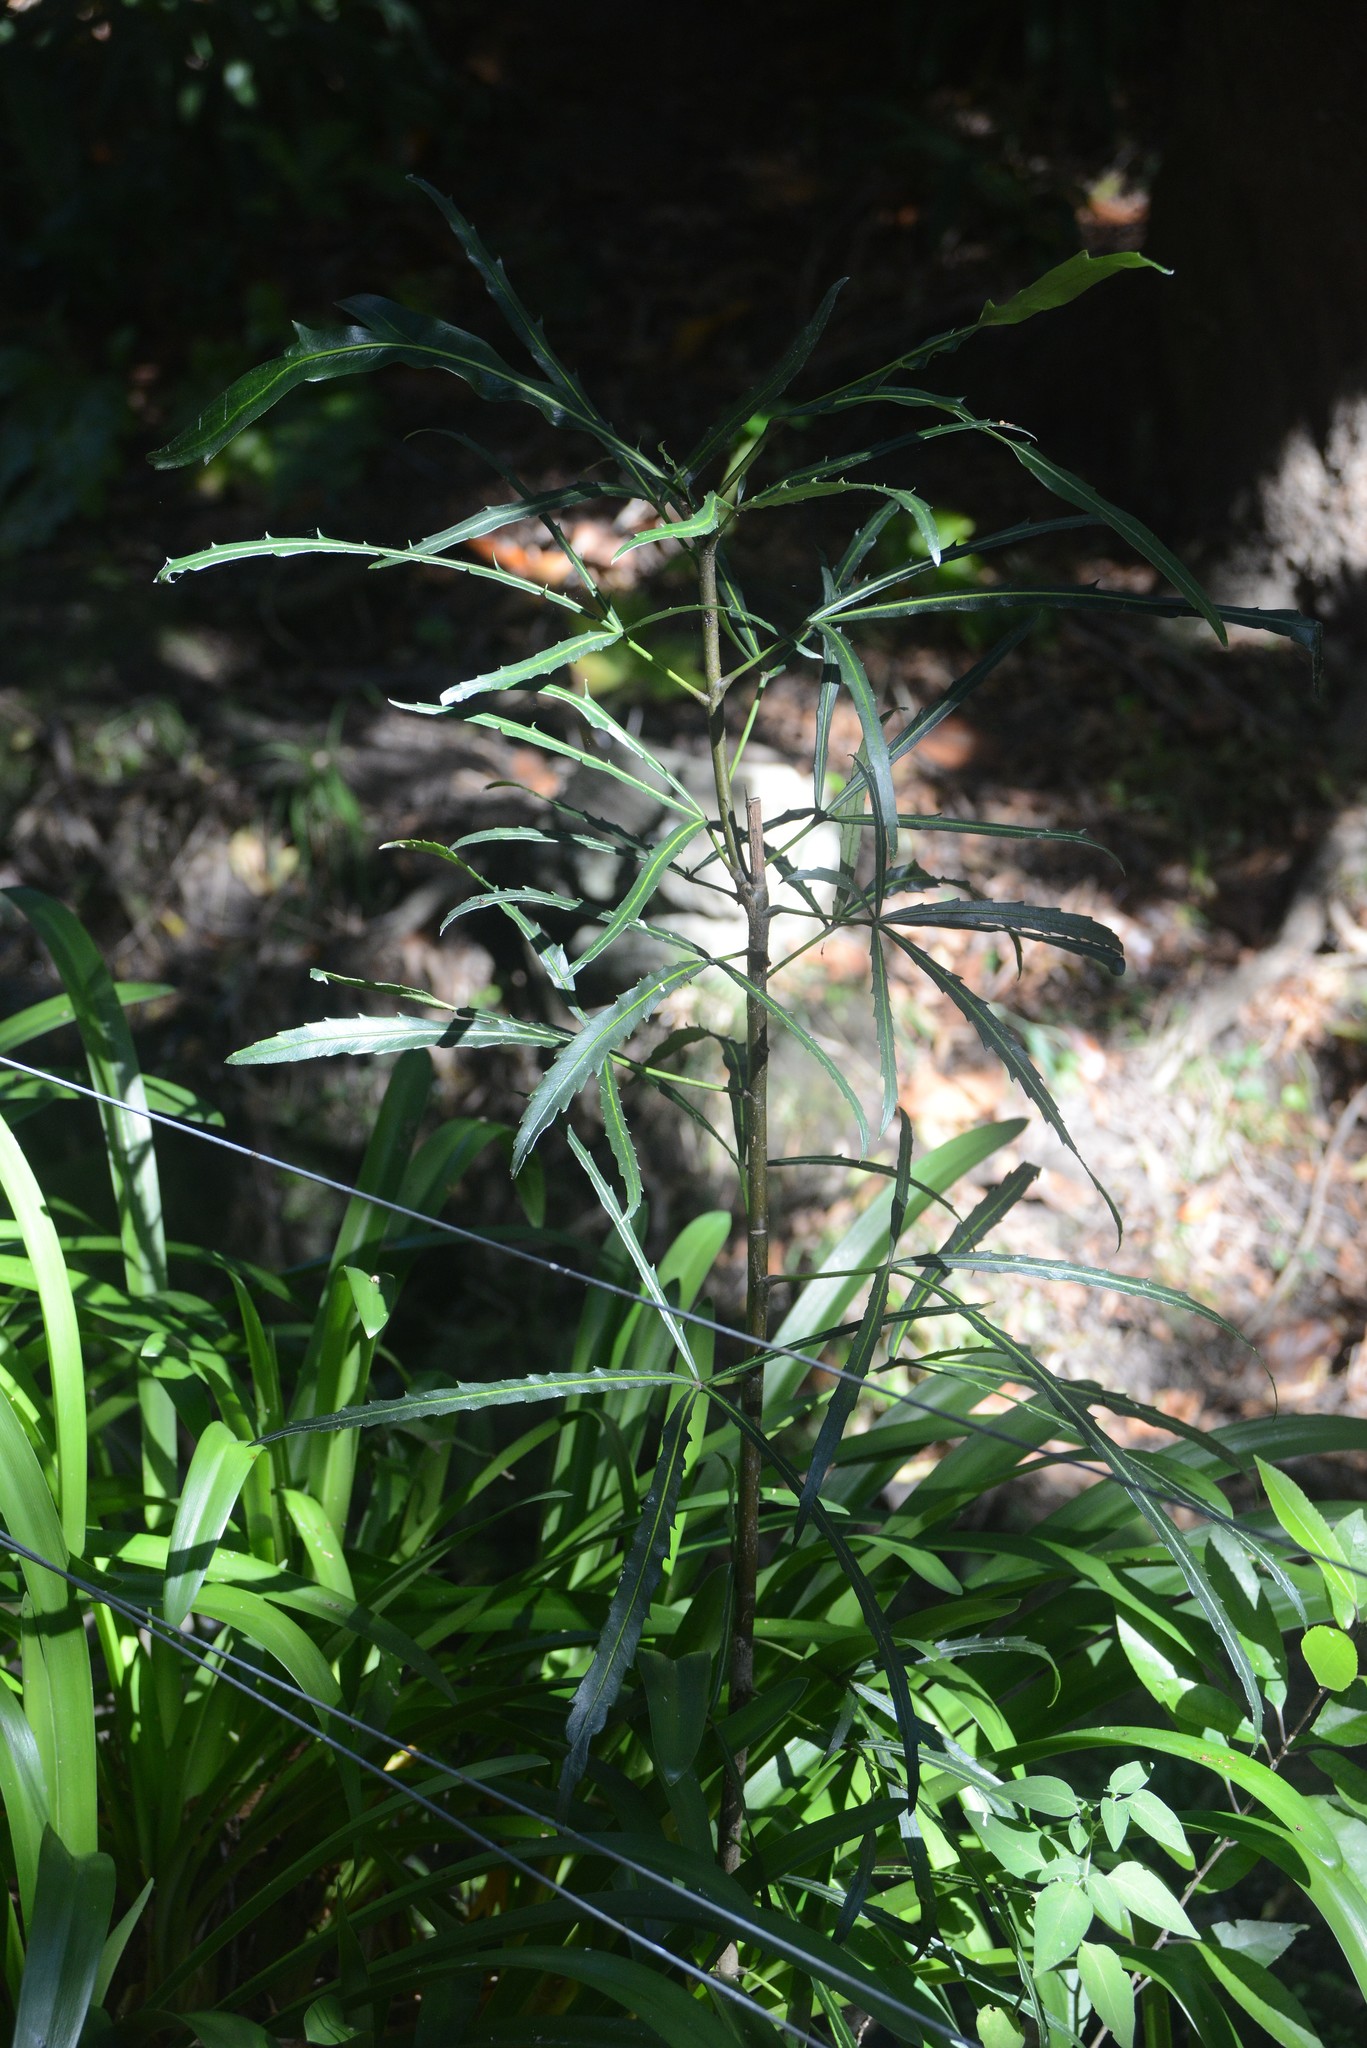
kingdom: Plantae
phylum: Tracheophyta
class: Magnoliopsida
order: Apiales
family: Araliaceae
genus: Pseudopanax
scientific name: Pseudopanax
